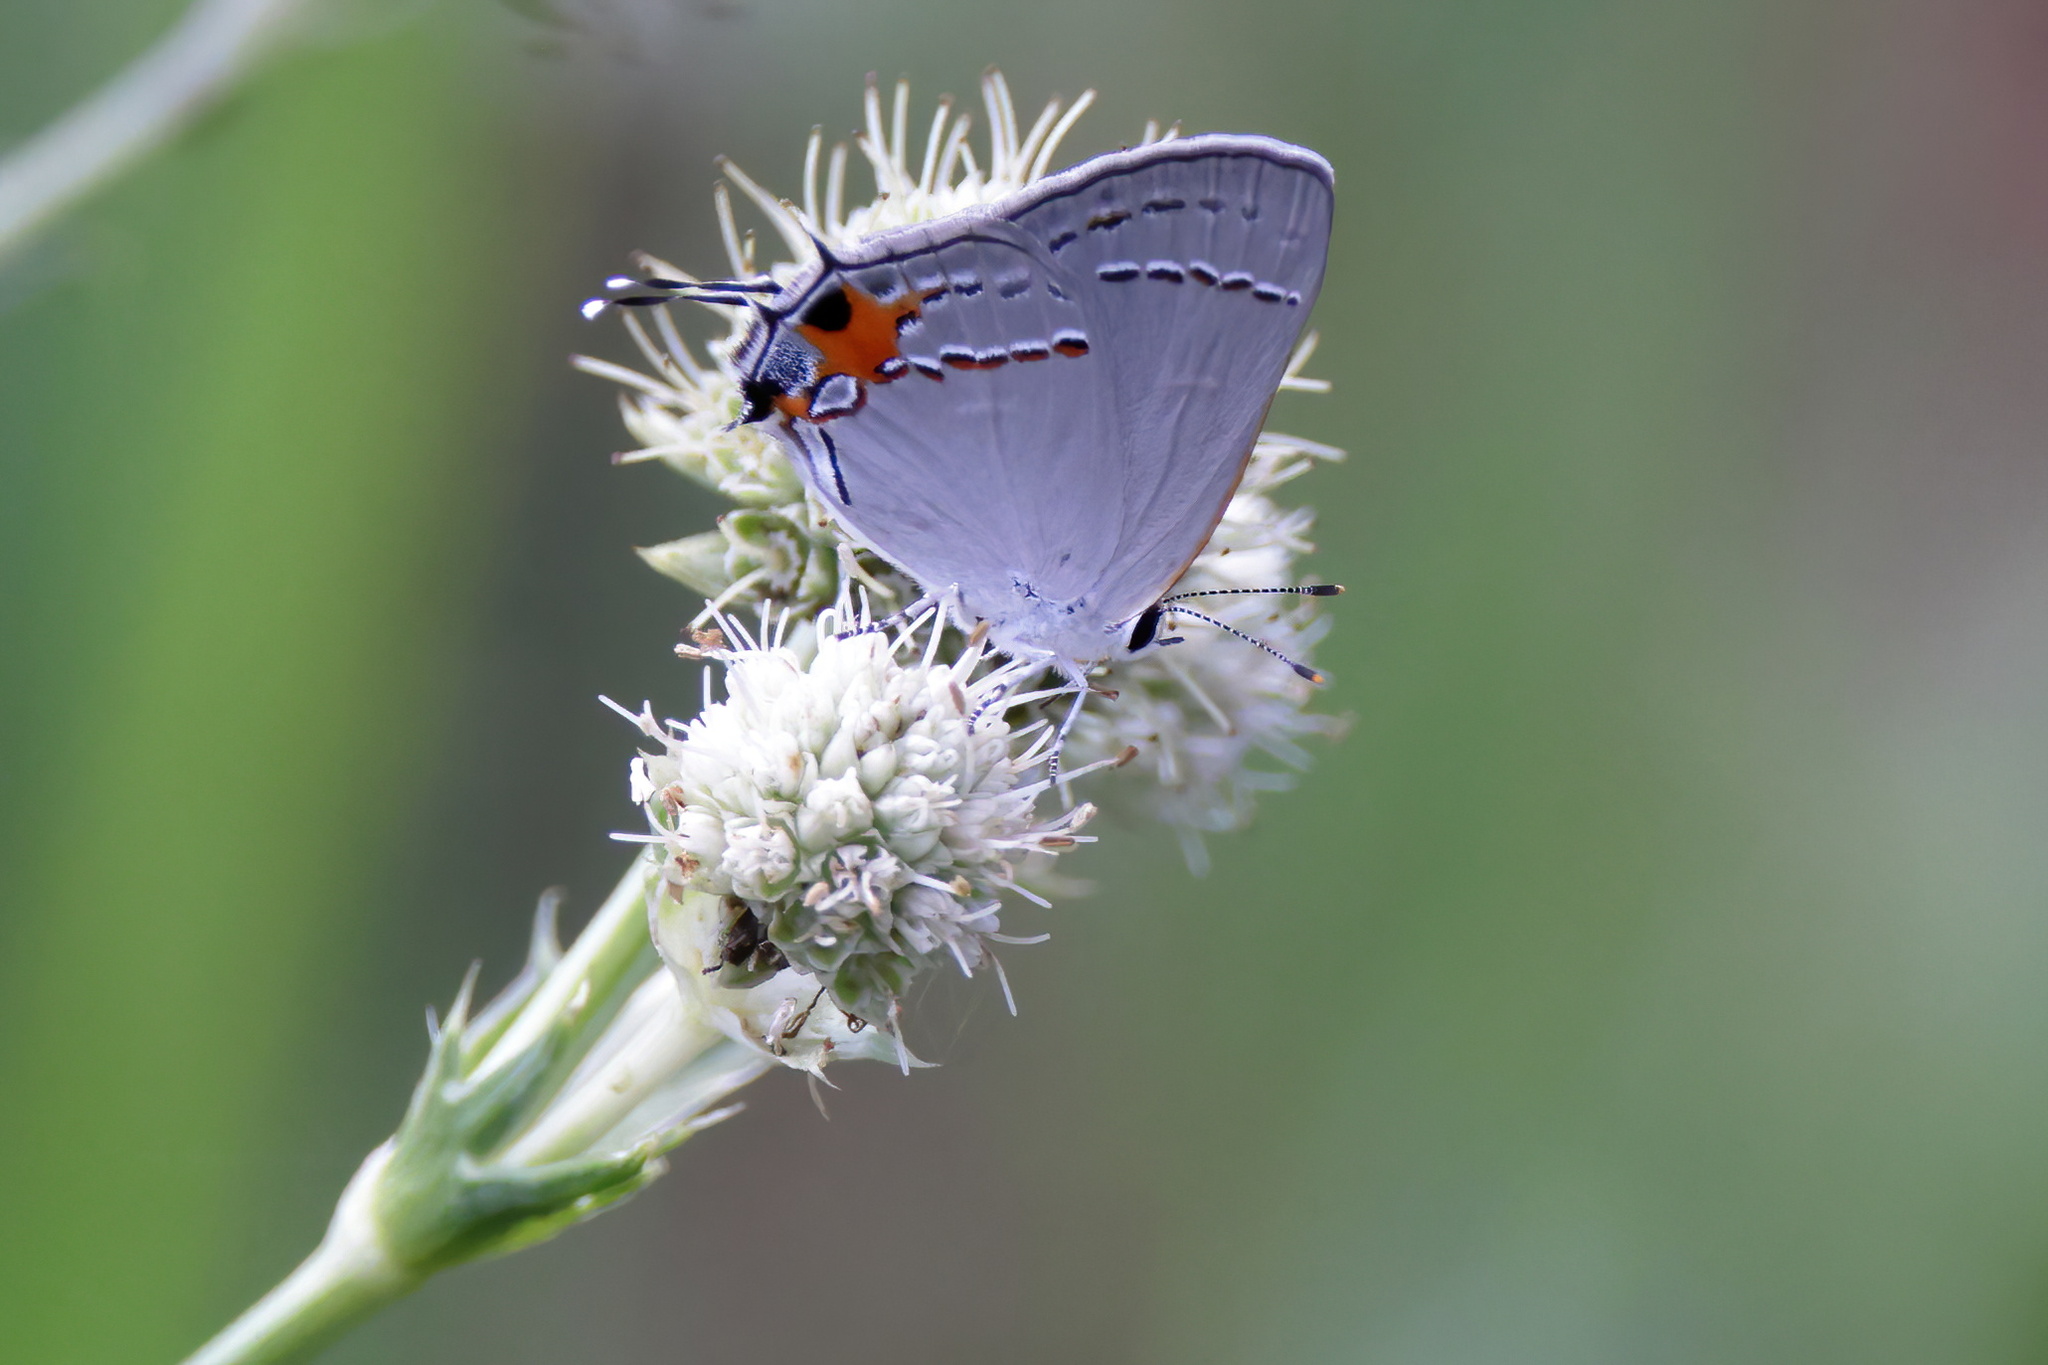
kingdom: Animalia
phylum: Arthropoda
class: Insecta
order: Lepidoptera
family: Lycaenidae
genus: Strymon
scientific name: Strymon melinus
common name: Gray hairstreak
